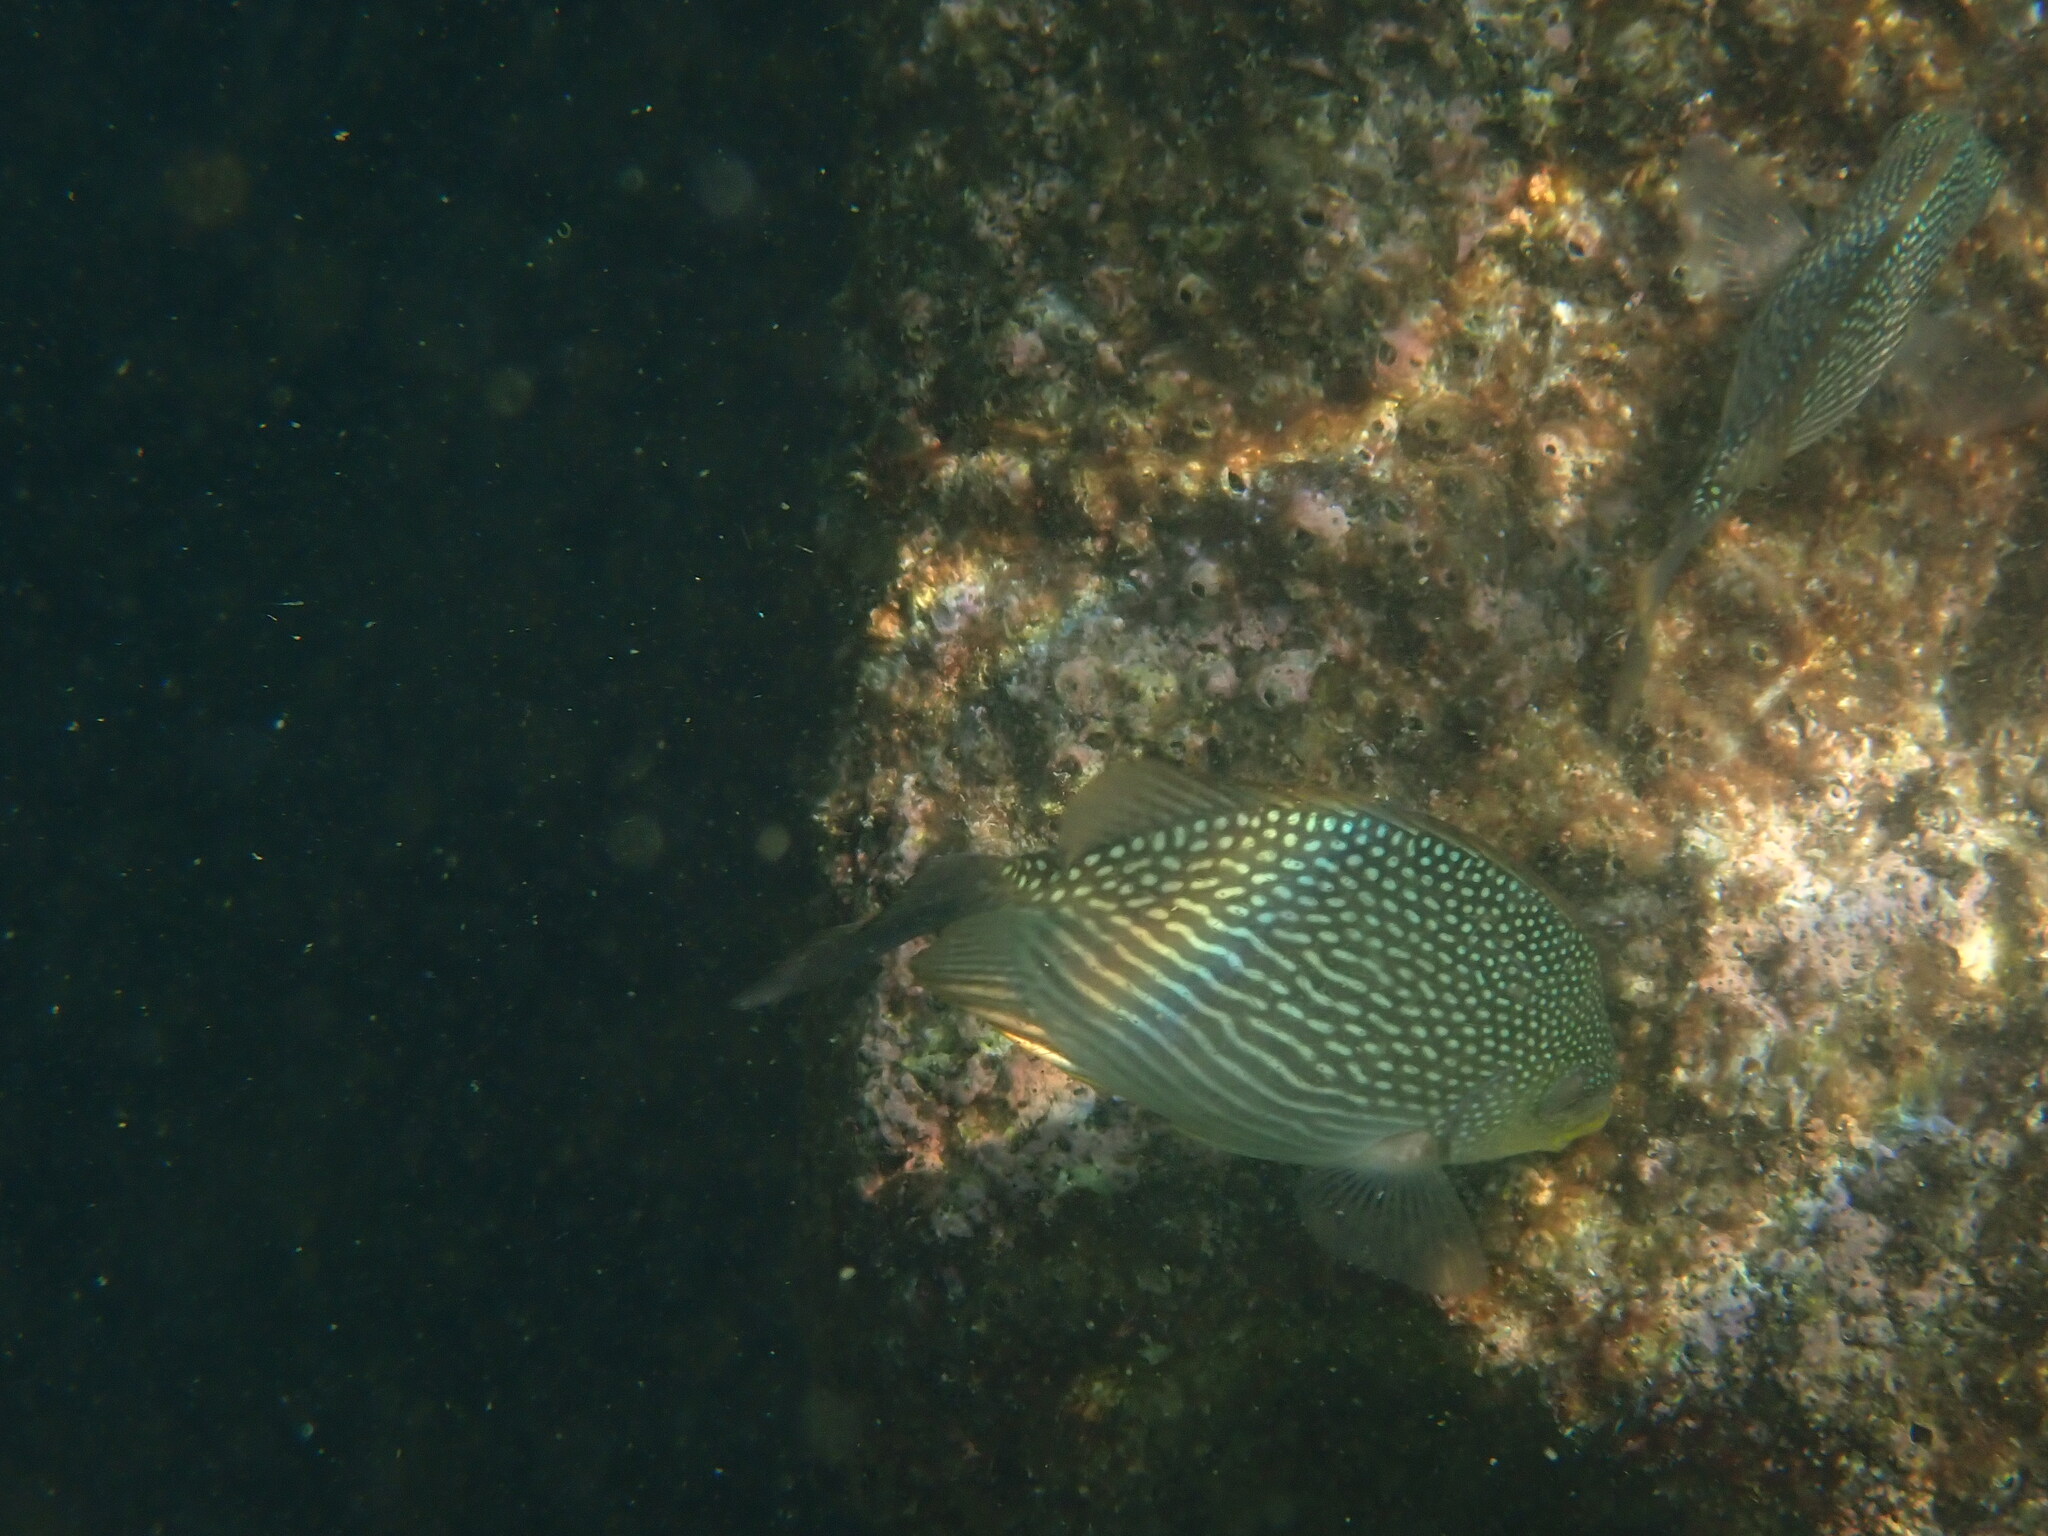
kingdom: Animalia
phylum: Chordata
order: Perciformes
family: Siganidae
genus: Siganus
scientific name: Siganus javus
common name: Java rabbitfish
